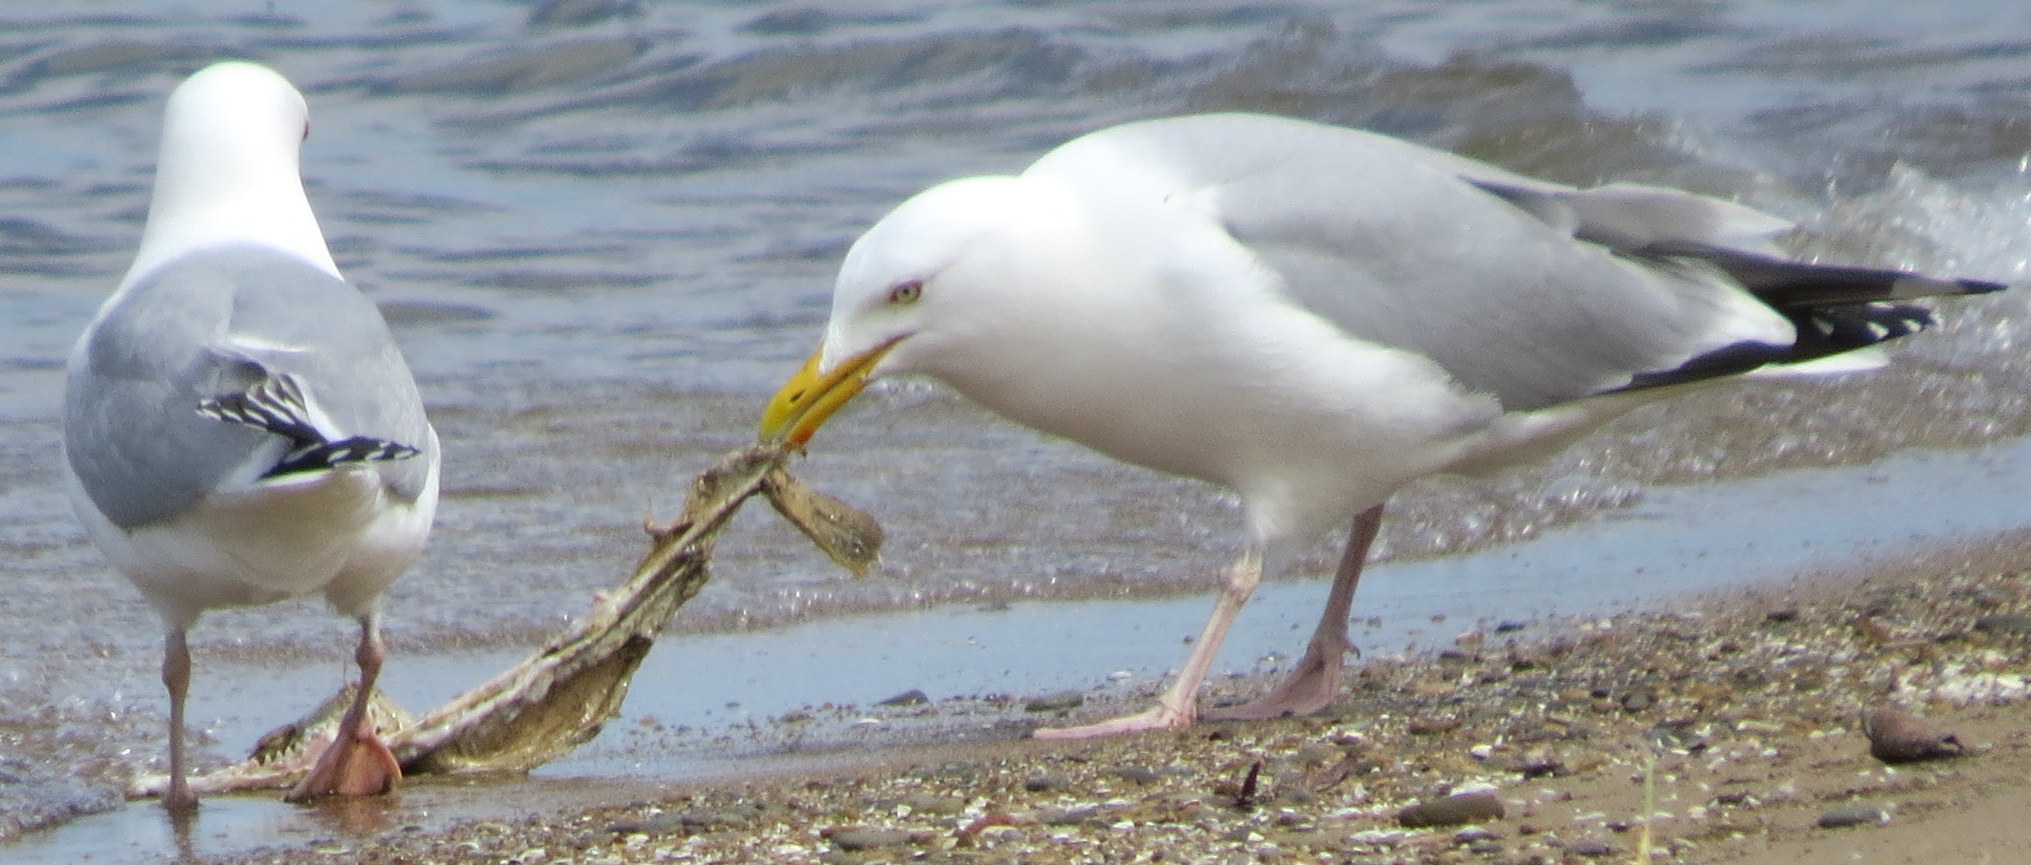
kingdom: Animalia
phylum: Chordata
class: Aves
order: Charadriiformes
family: Laridae
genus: Larus
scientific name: Larus argentatus
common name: Herring gull
